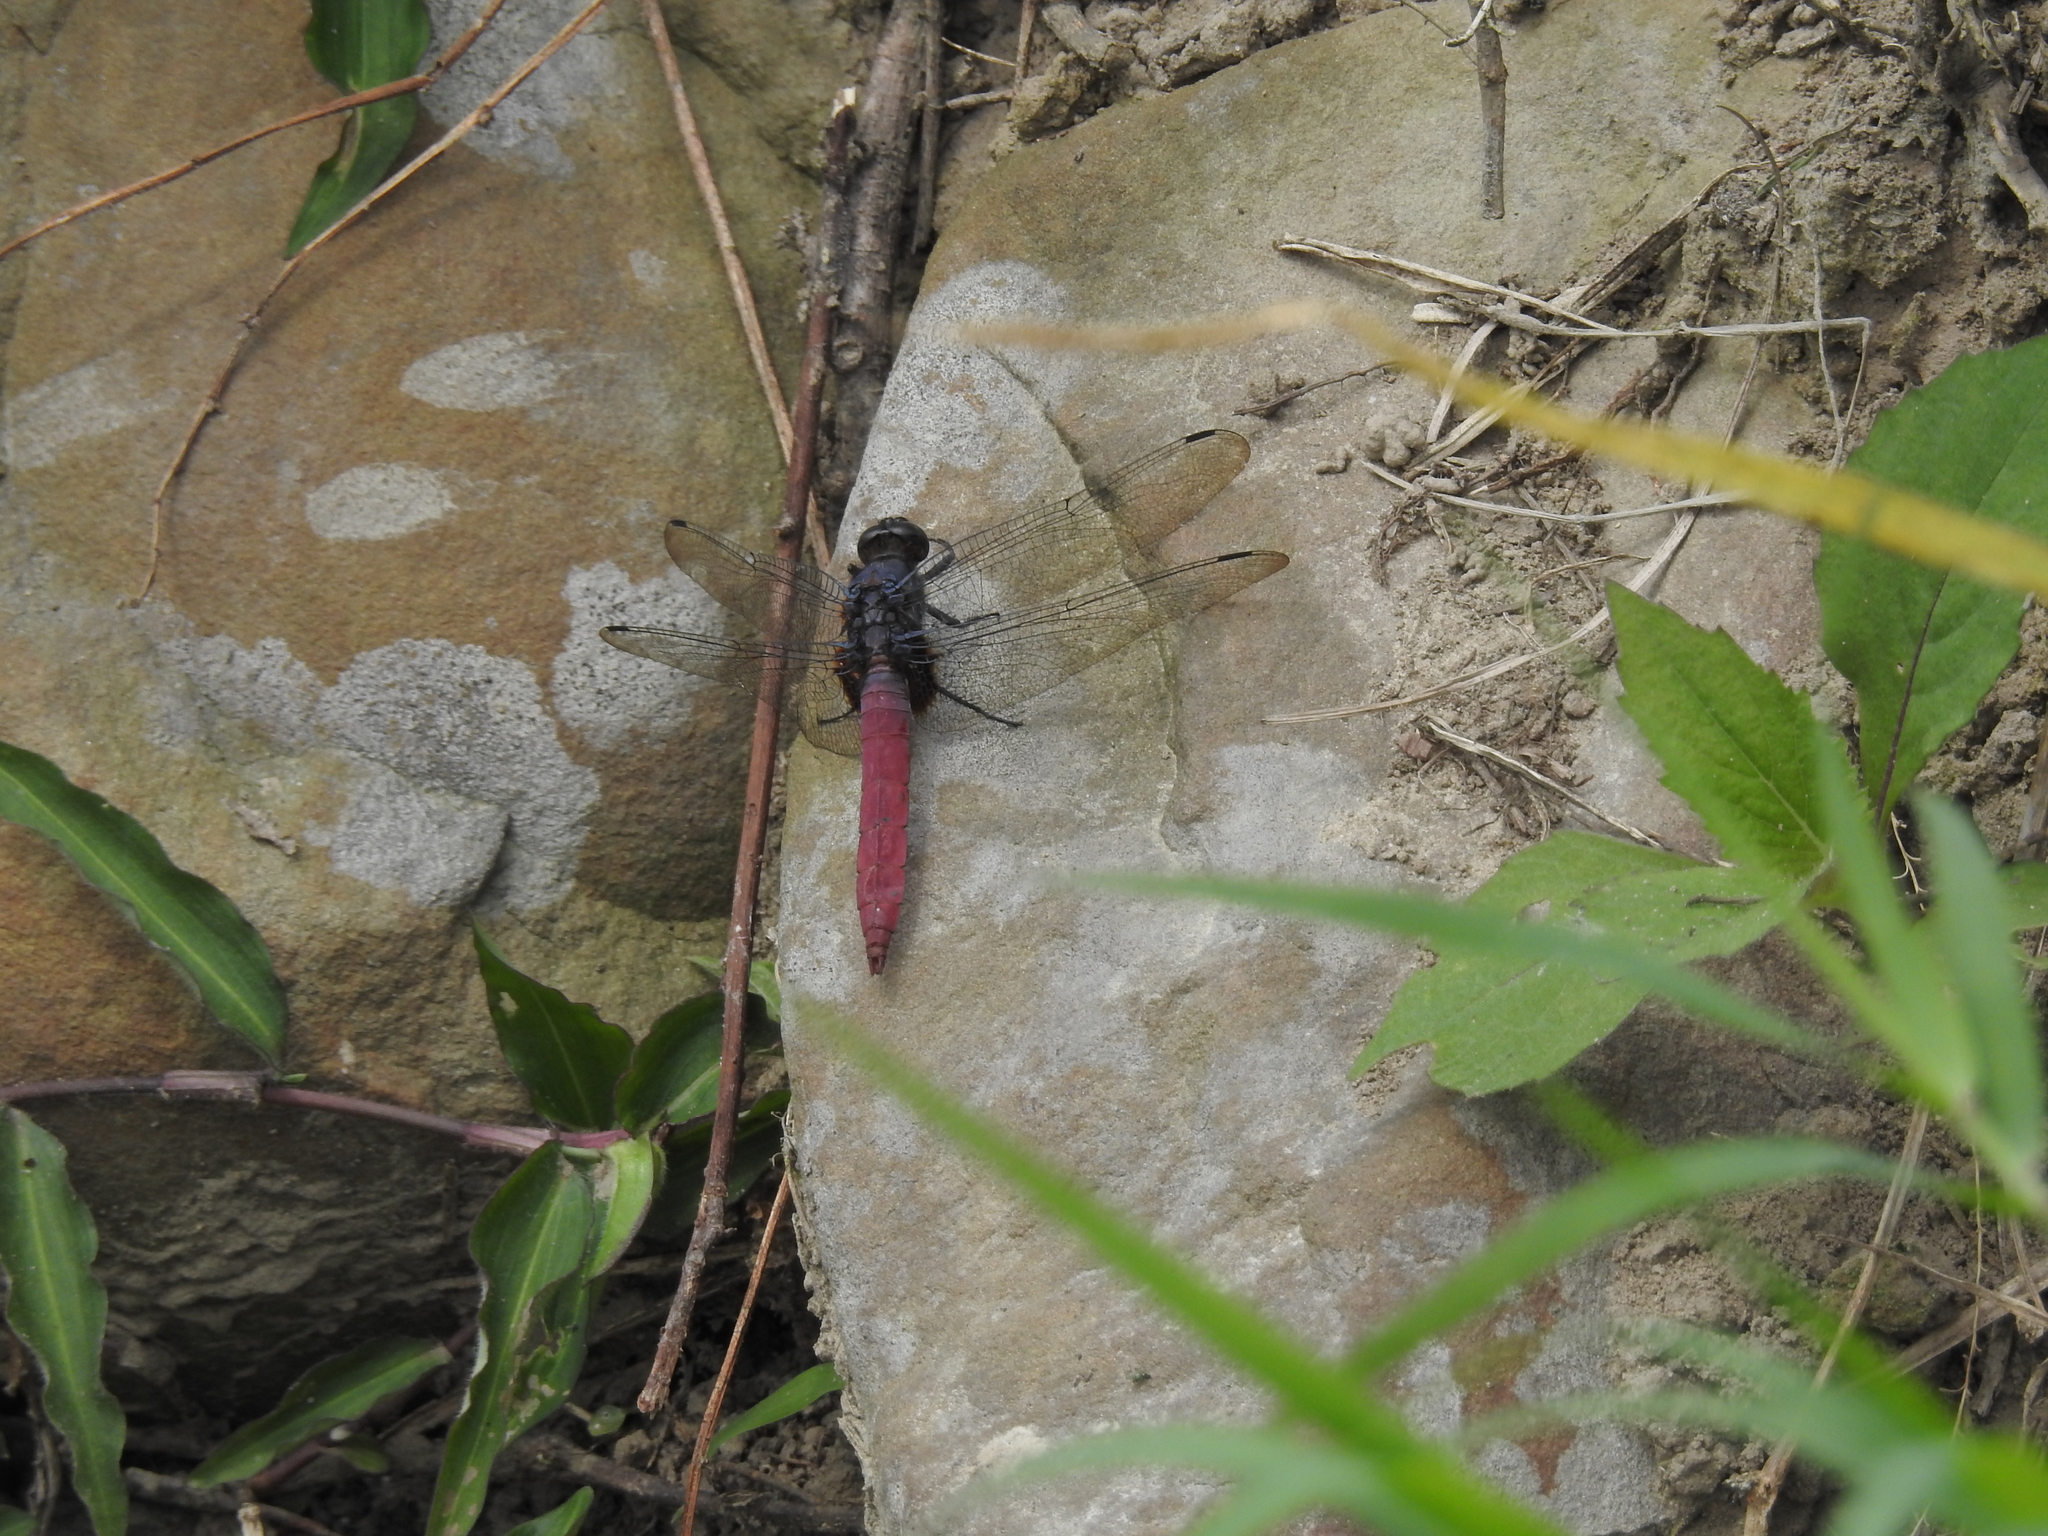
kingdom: Animalia
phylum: Arthropoda
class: Insecta
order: Odonata
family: Libellulidae
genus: Orthetrum
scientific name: Orthetrum pruinosum
